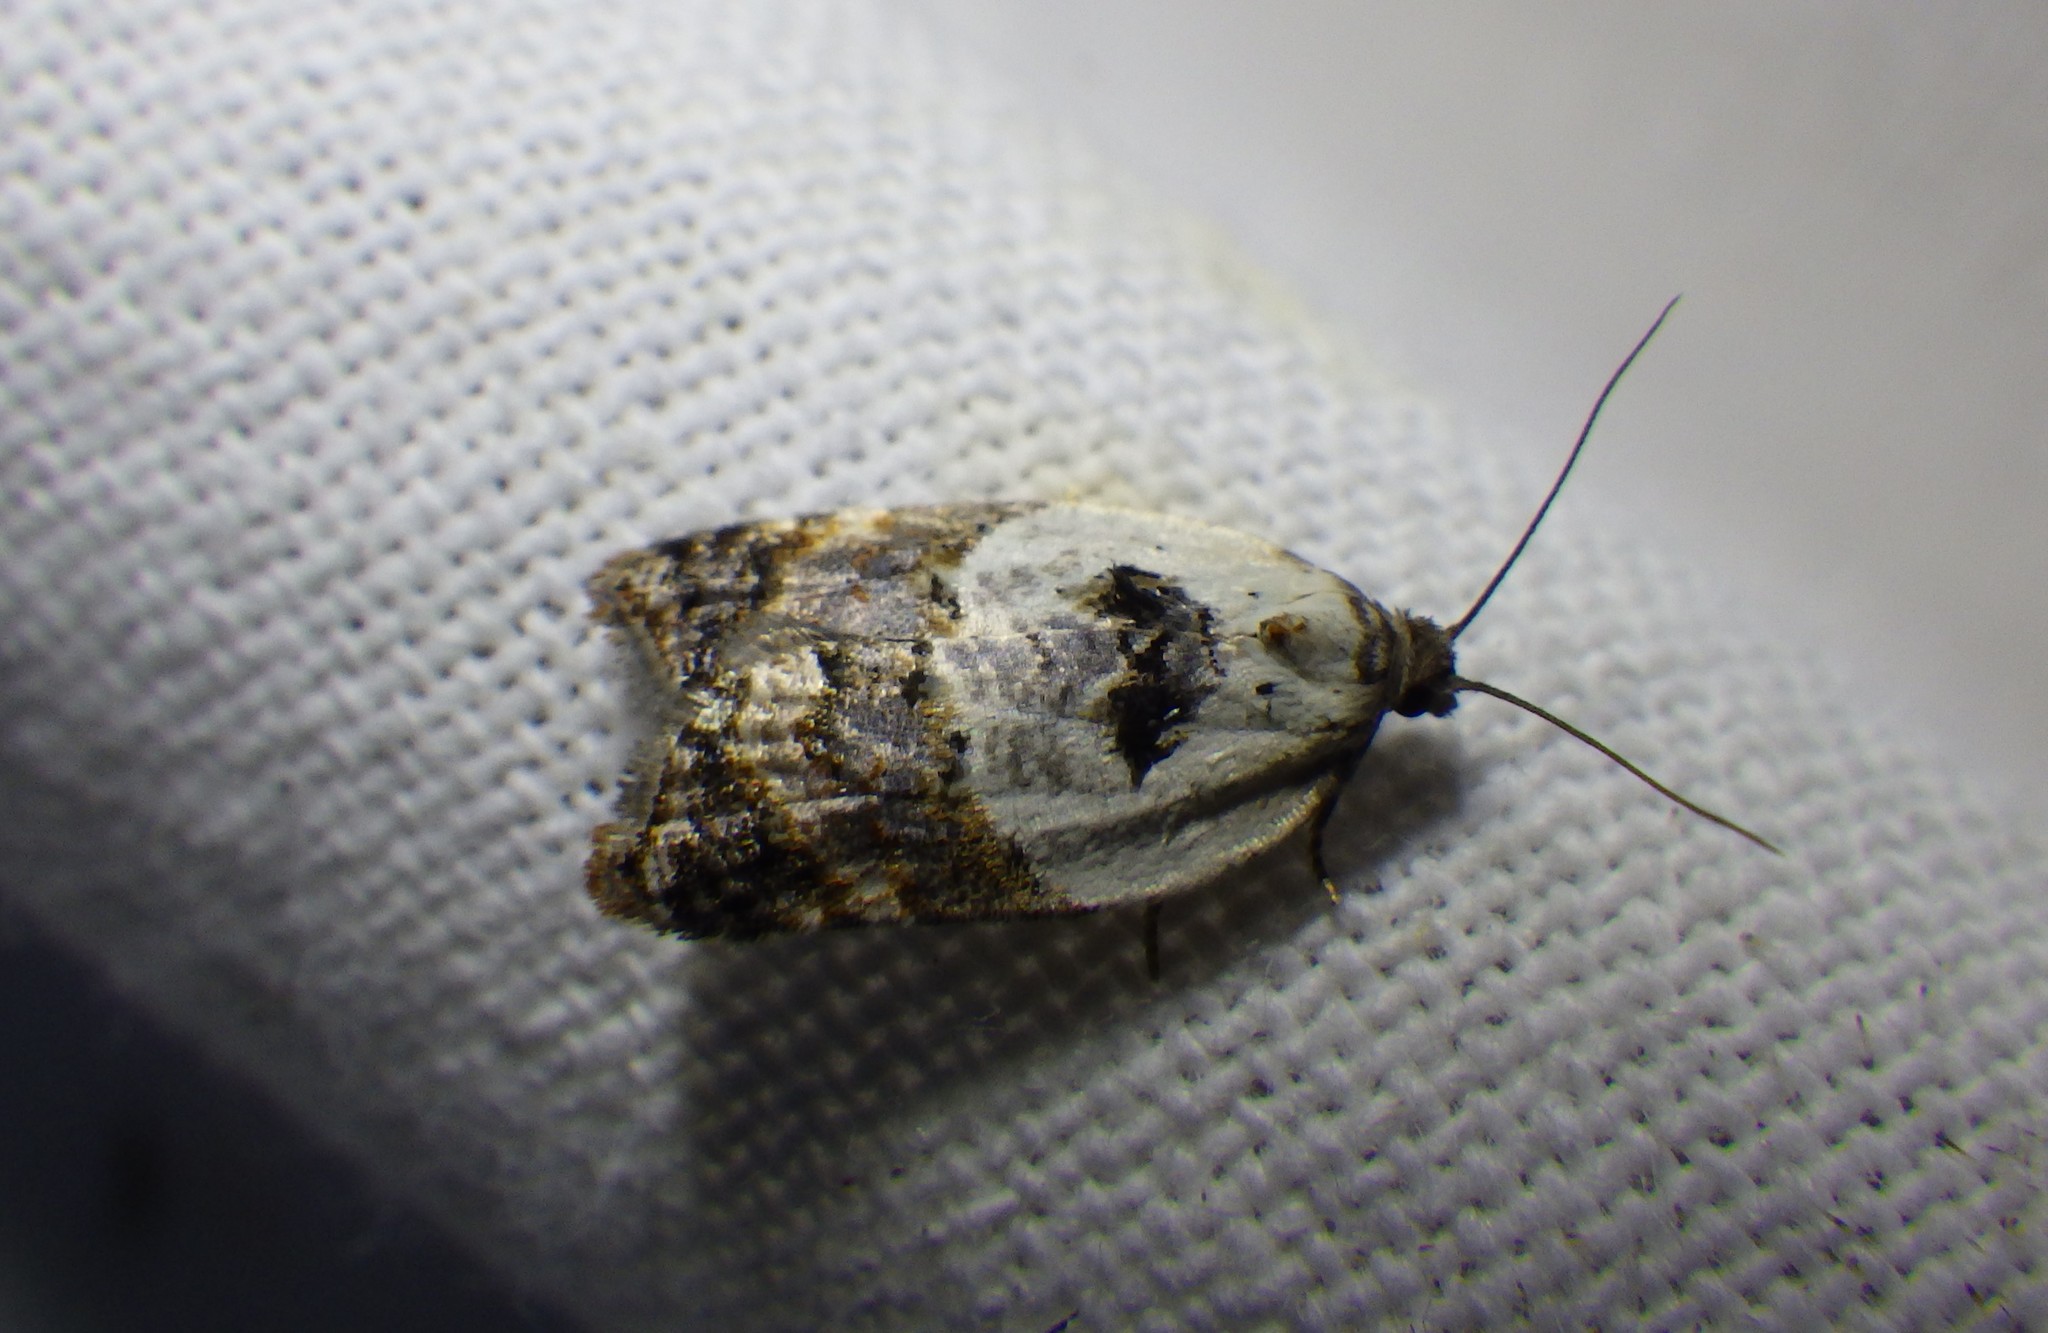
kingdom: Animalia
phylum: Arthropoda
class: Insecta
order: Lepidoptera
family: Tortricidae
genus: Acleris
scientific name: Acleris variegana
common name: Garden rose tortrix
